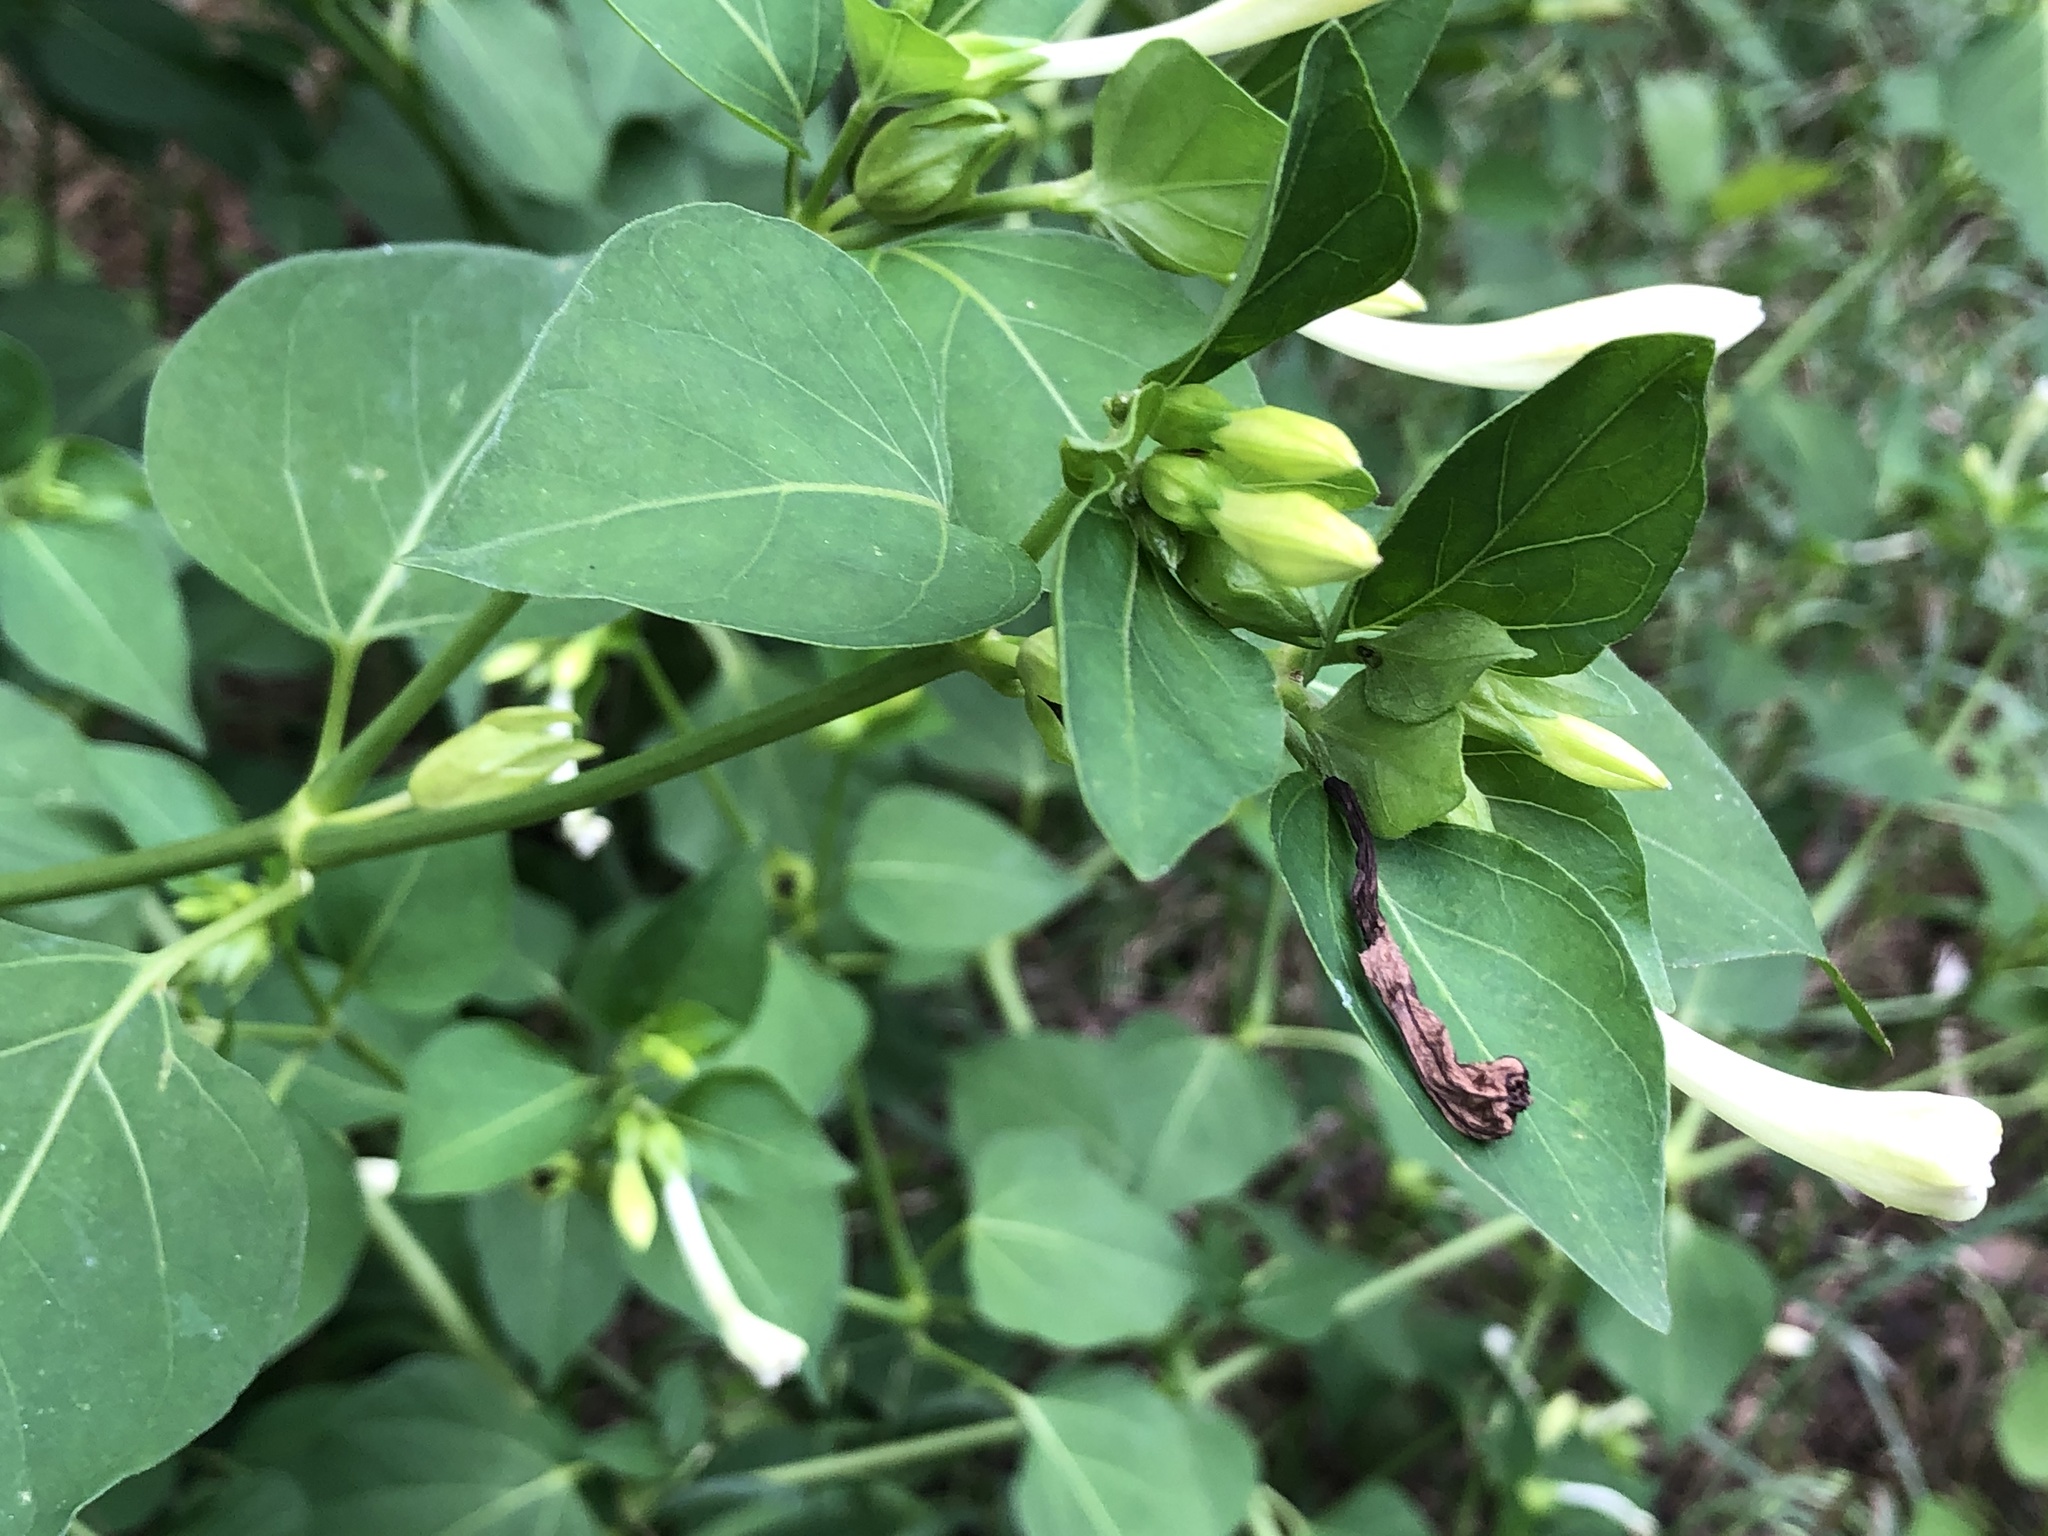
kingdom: Plantae
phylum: Tracheophyta
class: Magnoliopsida
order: Caryophyllales
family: Nyctaginaceae
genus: Mirabilis
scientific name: Mirabilis jalapa
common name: Marvel-of-peru
